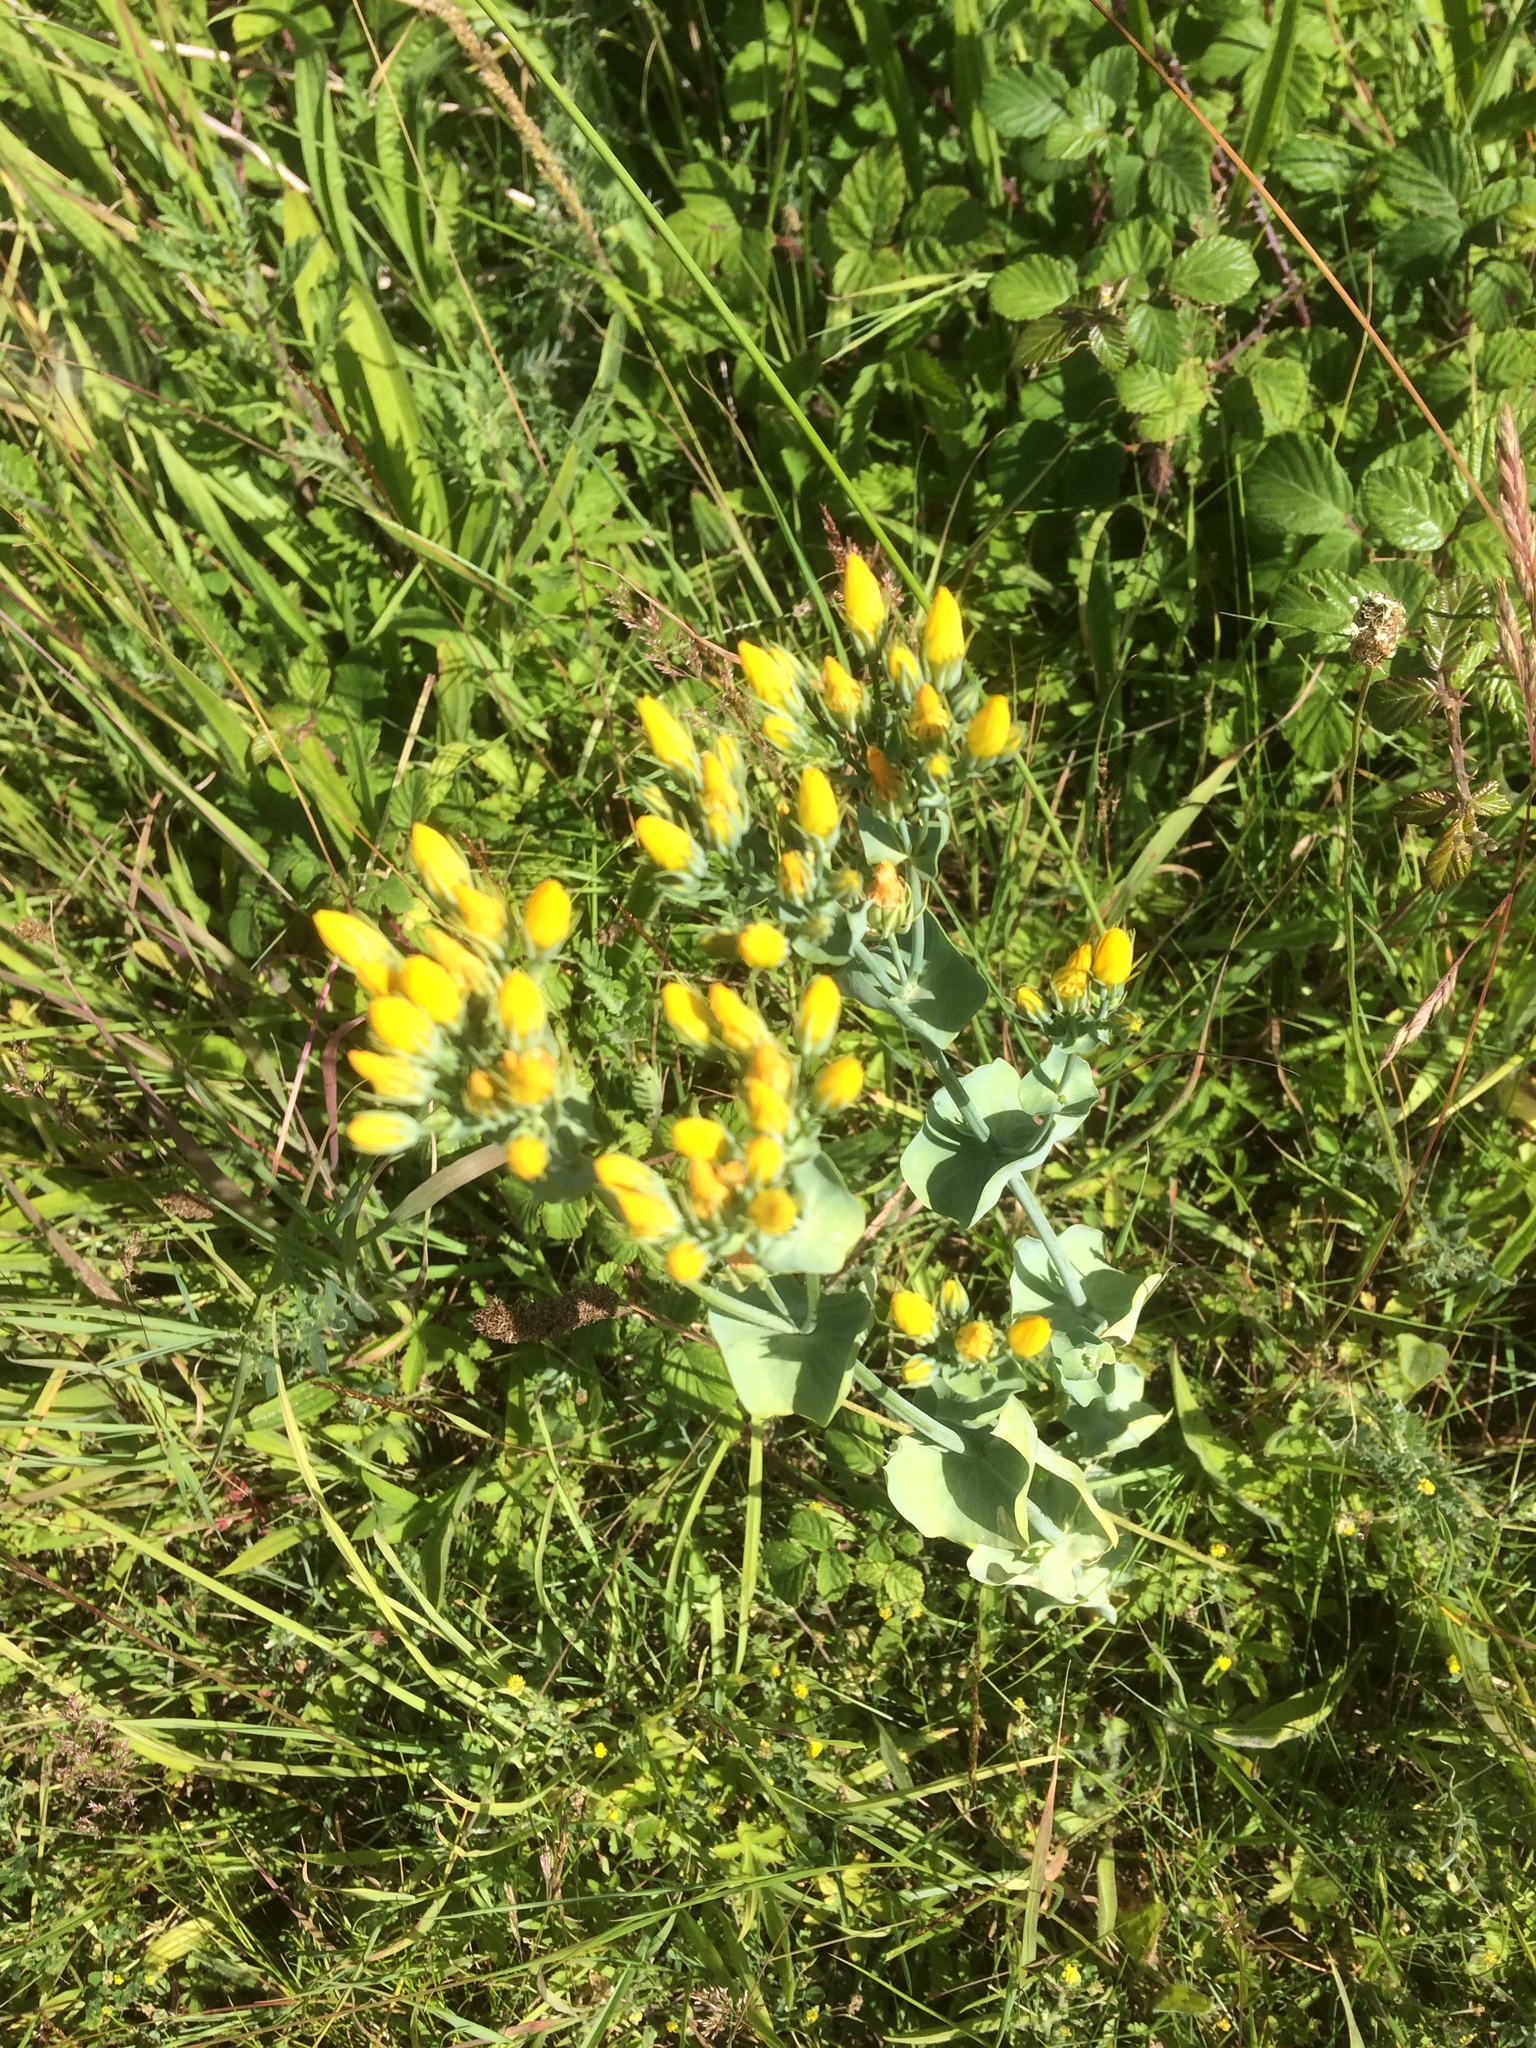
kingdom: Plantae
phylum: Tracheophyta
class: Magnoliopsida
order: Gentianales
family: Gentianaceae
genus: Blackstonia
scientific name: Blackstonia perfoliata
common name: Yellow-wort
